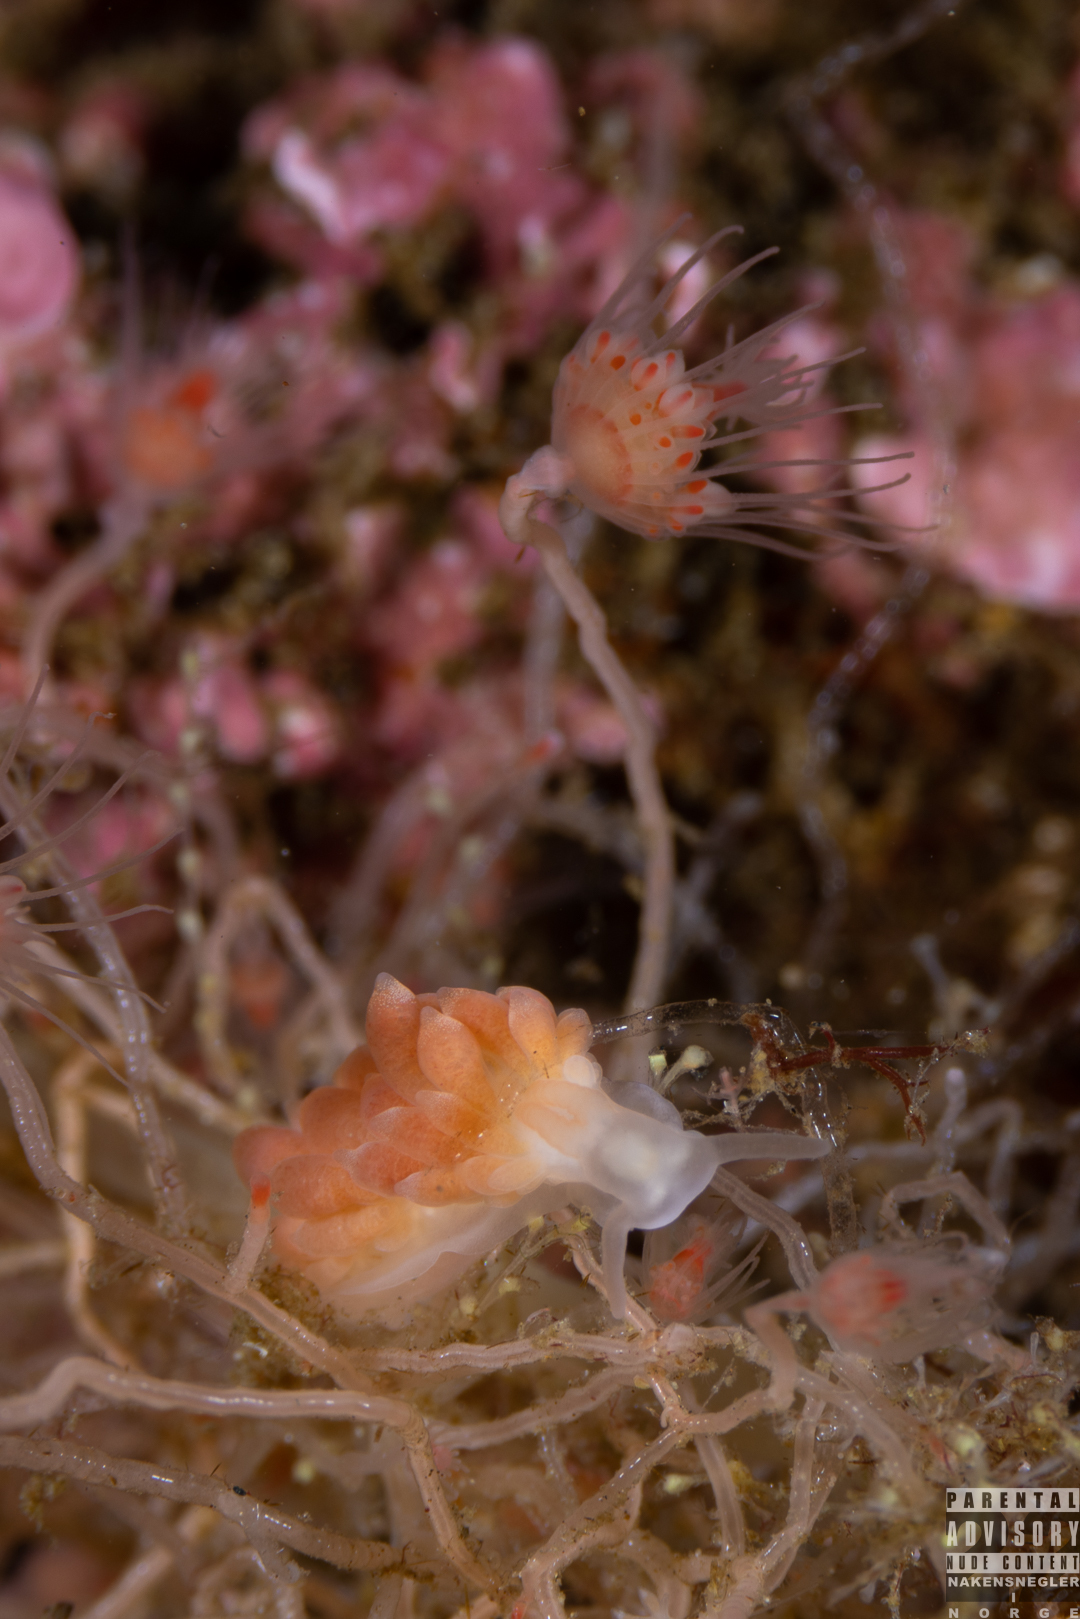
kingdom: Animalia
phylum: Mollusca
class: Gastropoda
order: Nudibranchia
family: Trinchesiidae
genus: Catriona
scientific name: Catriona aurantia
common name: Corange-tip cuthona
